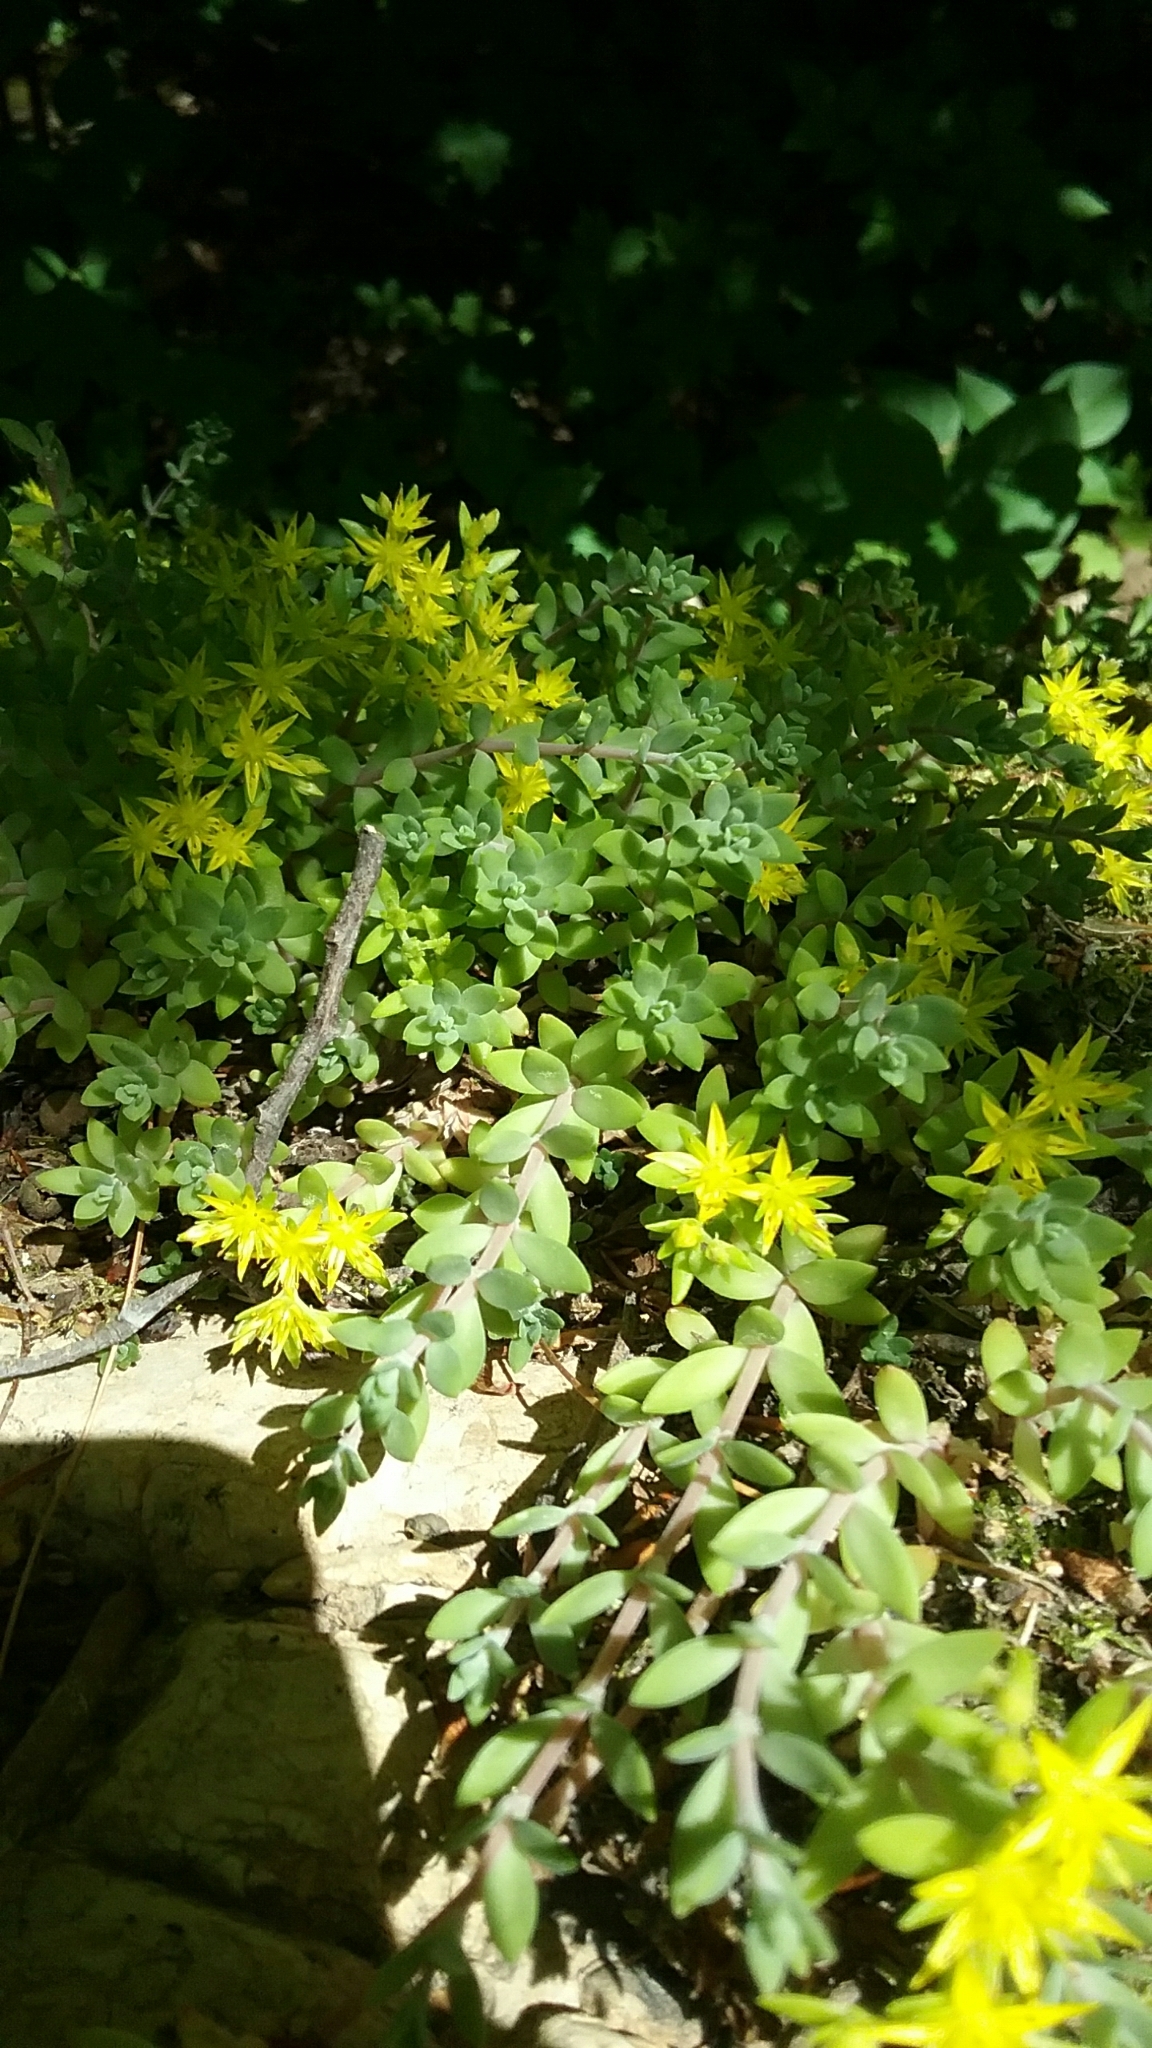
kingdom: Plantae
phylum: Tracheophyta
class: Magnoliopsida
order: Saxifragales
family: Crassulaceae
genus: Sedum
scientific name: Sedum sarmentosum
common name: Stringy stonecrop
